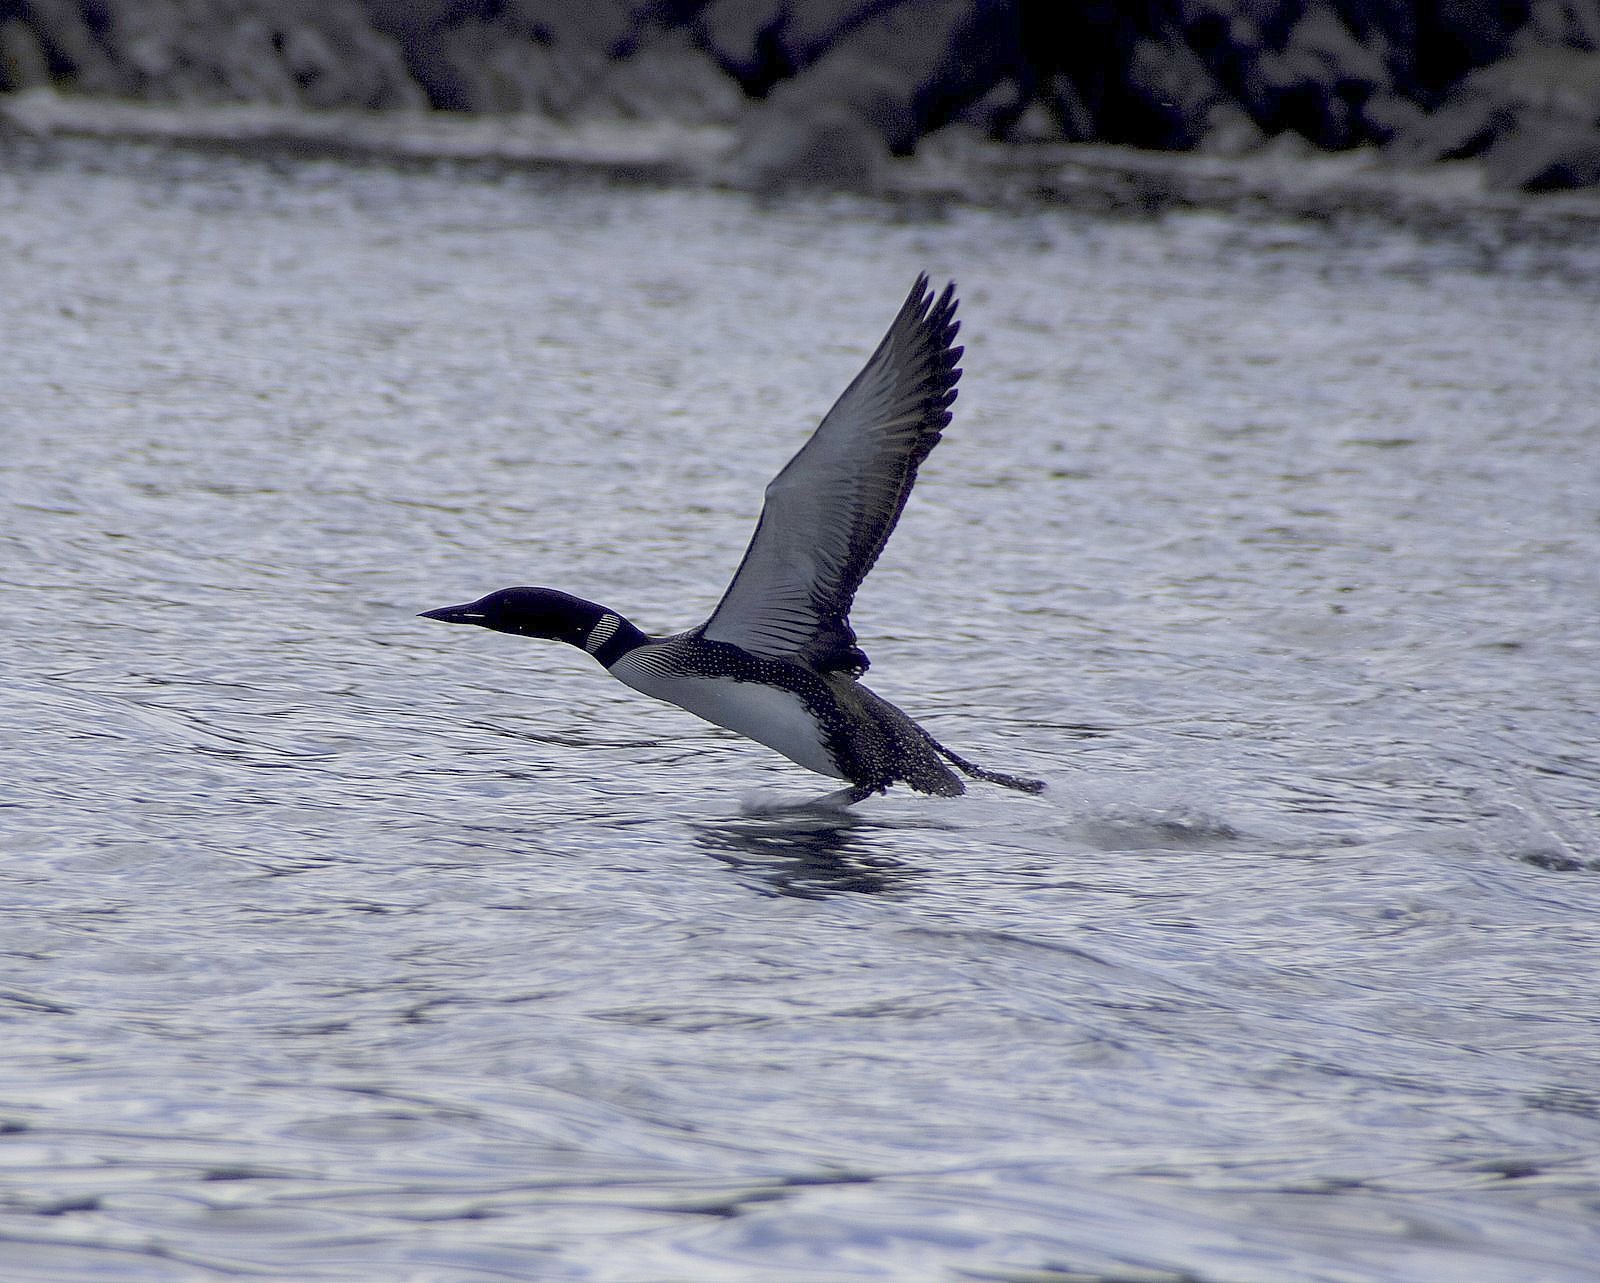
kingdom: Animalia
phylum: Chordata
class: Aves
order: Gaviiformes
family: Gaviidae
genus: Gavia
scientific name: Gavia immer
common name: Common loon
